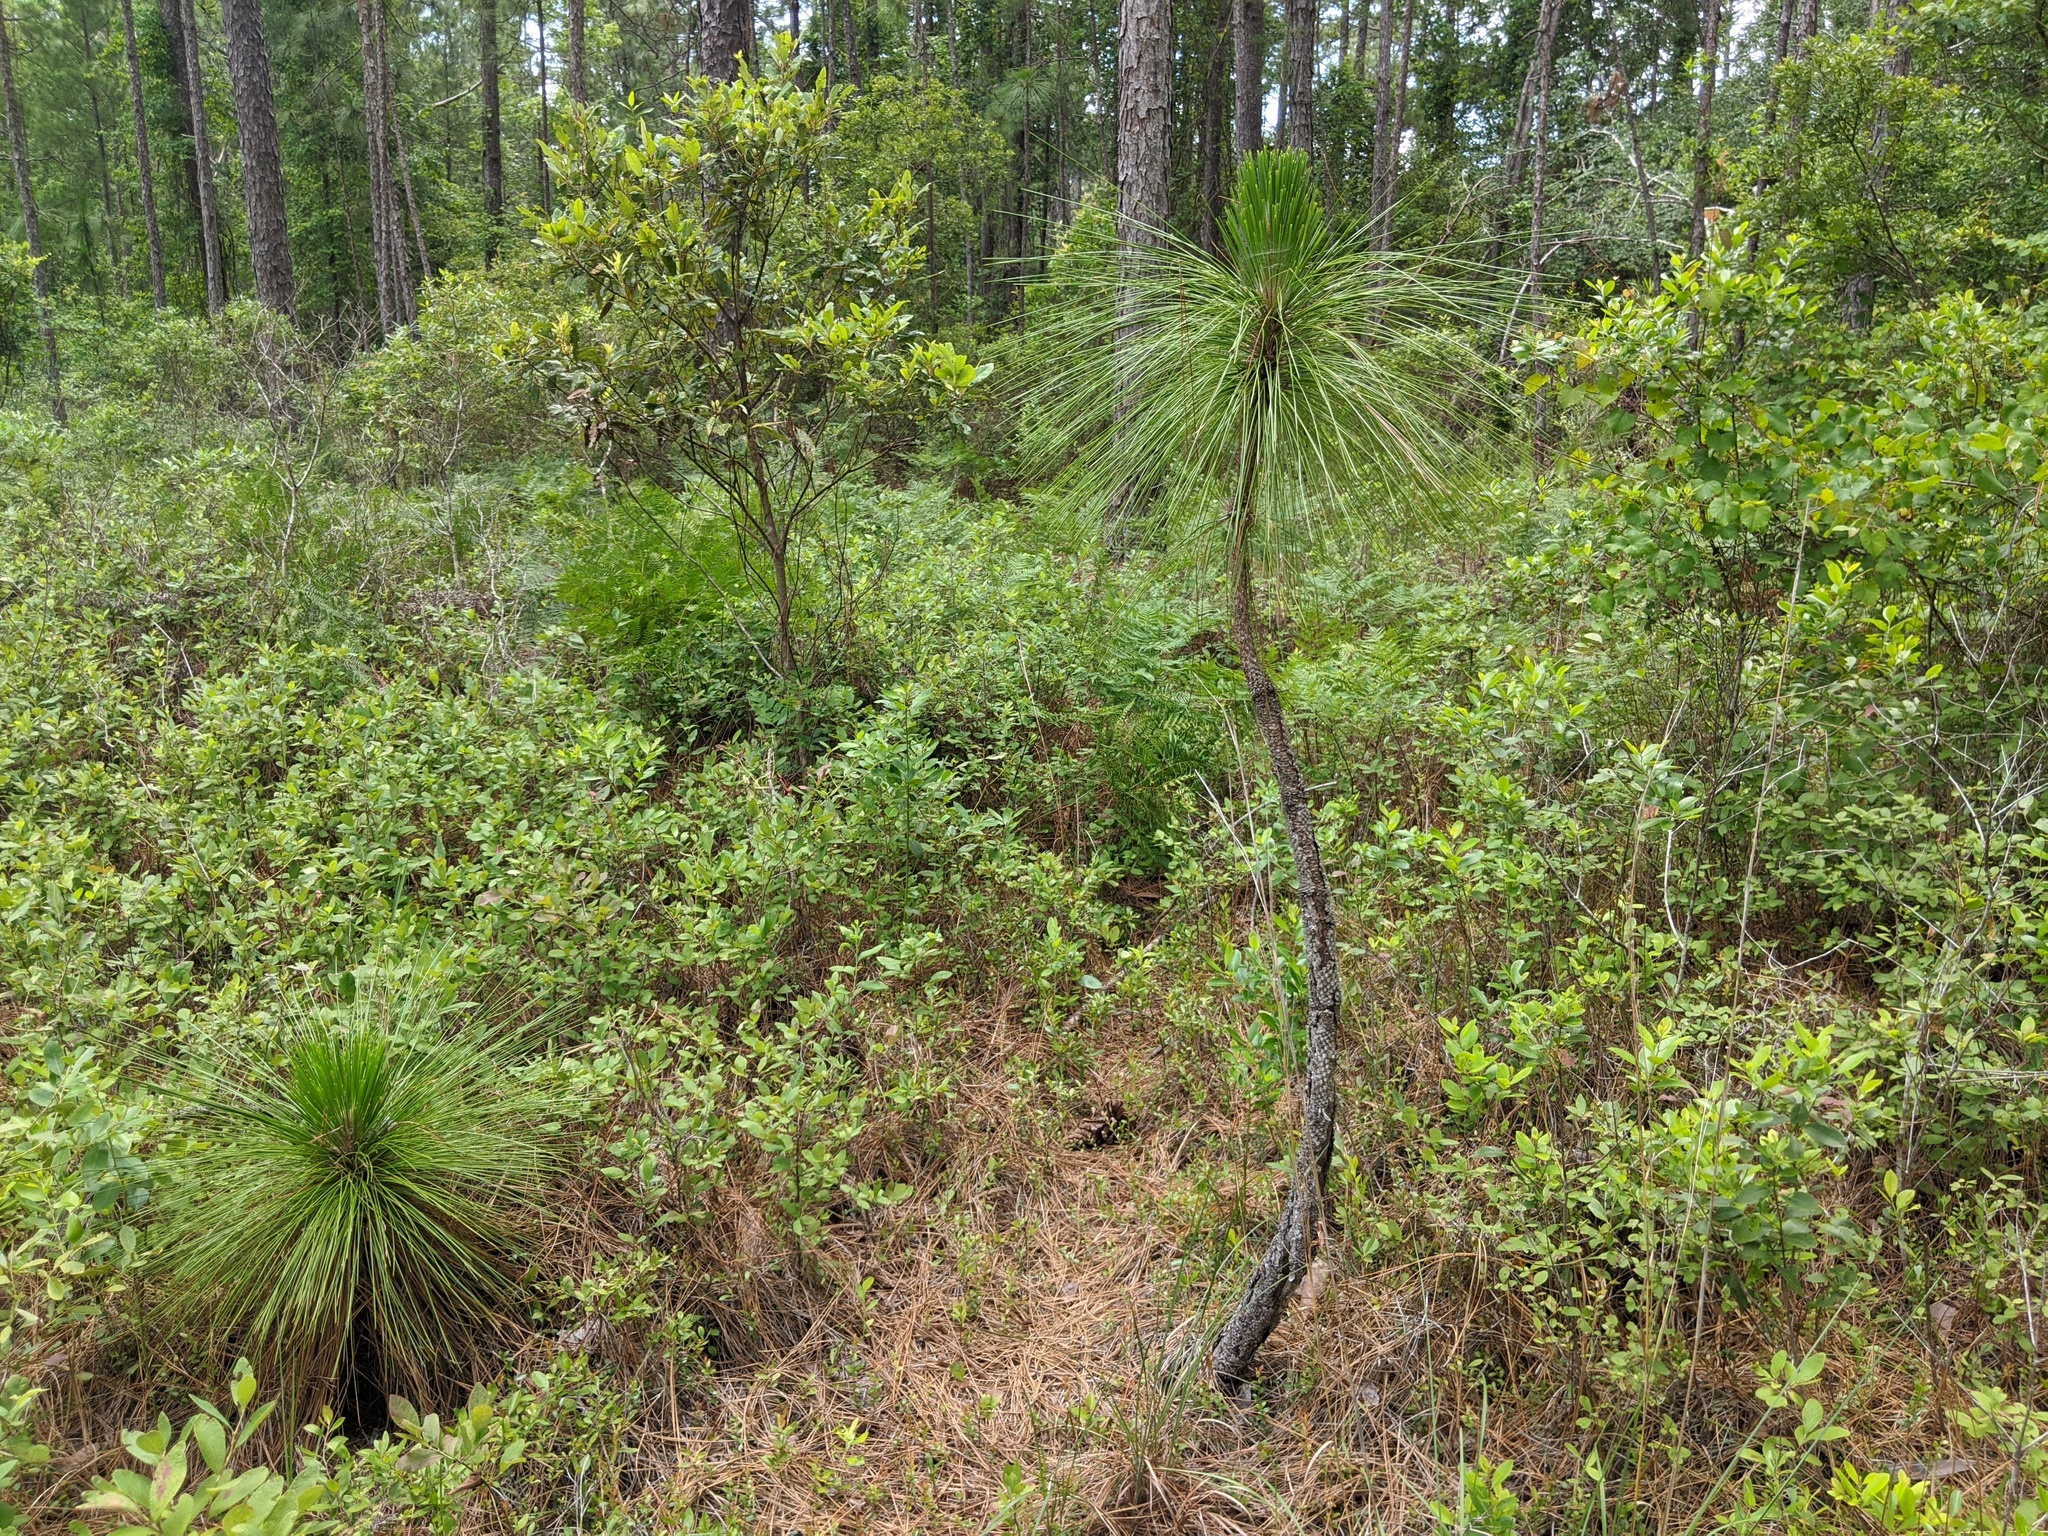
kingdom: Plantae
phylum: Tracheophyta
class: Pinopsida
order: Pinales
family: Pinaceae
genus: Pinus
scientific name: Pinus palustris
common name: Longleaf pine
